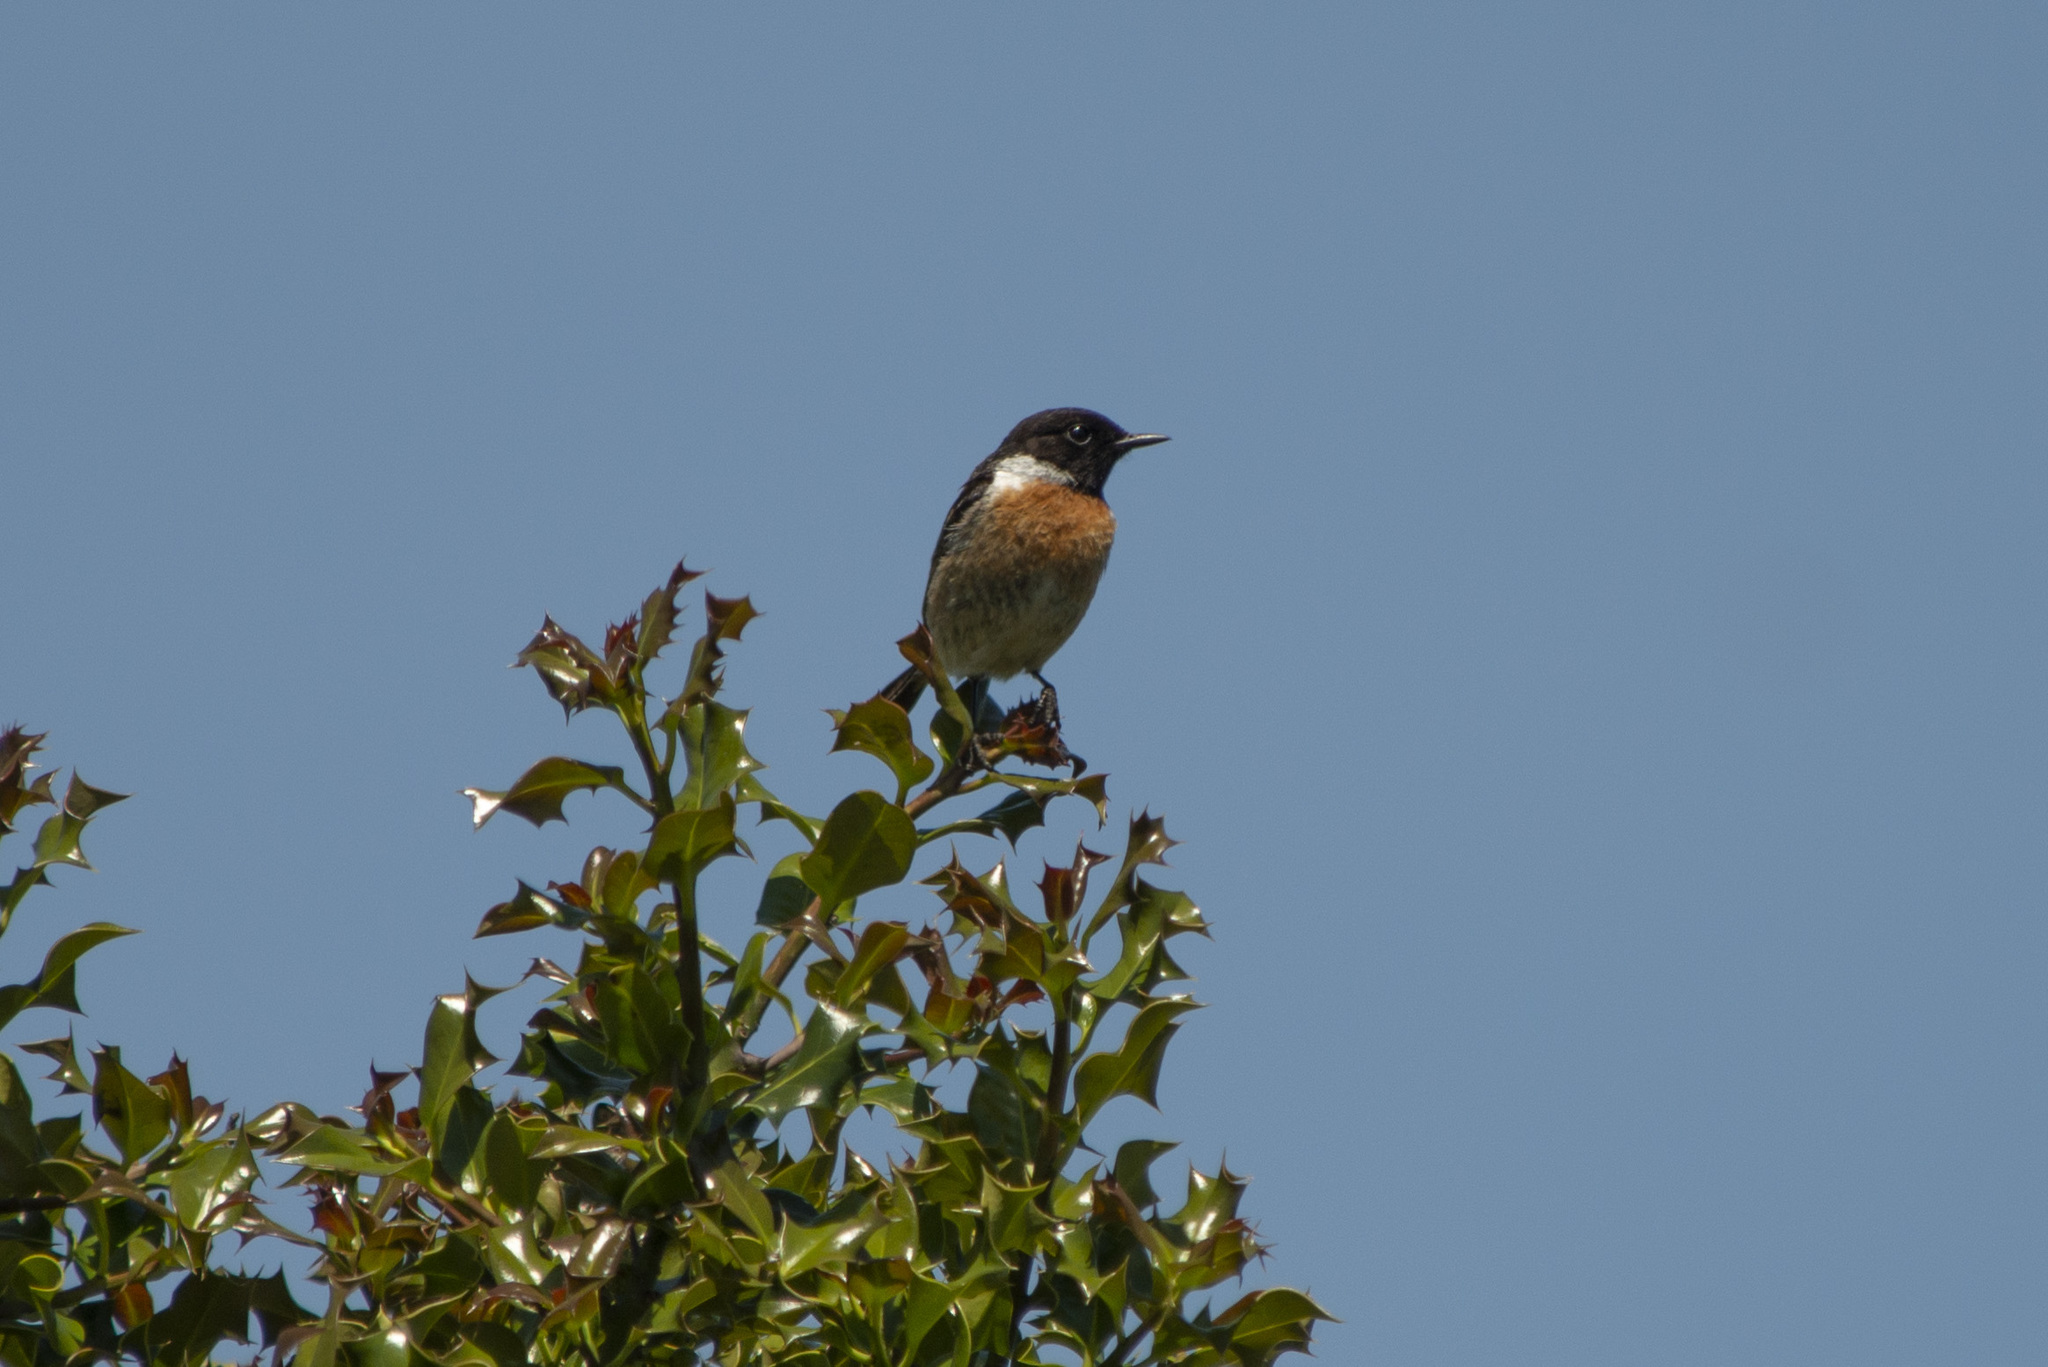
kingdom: Animalia
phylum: Chordata
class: Aves
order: Passeriformes
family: Muscicapidae
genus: Saxicola
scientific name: Saxicola rubicola
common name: European stonechat
